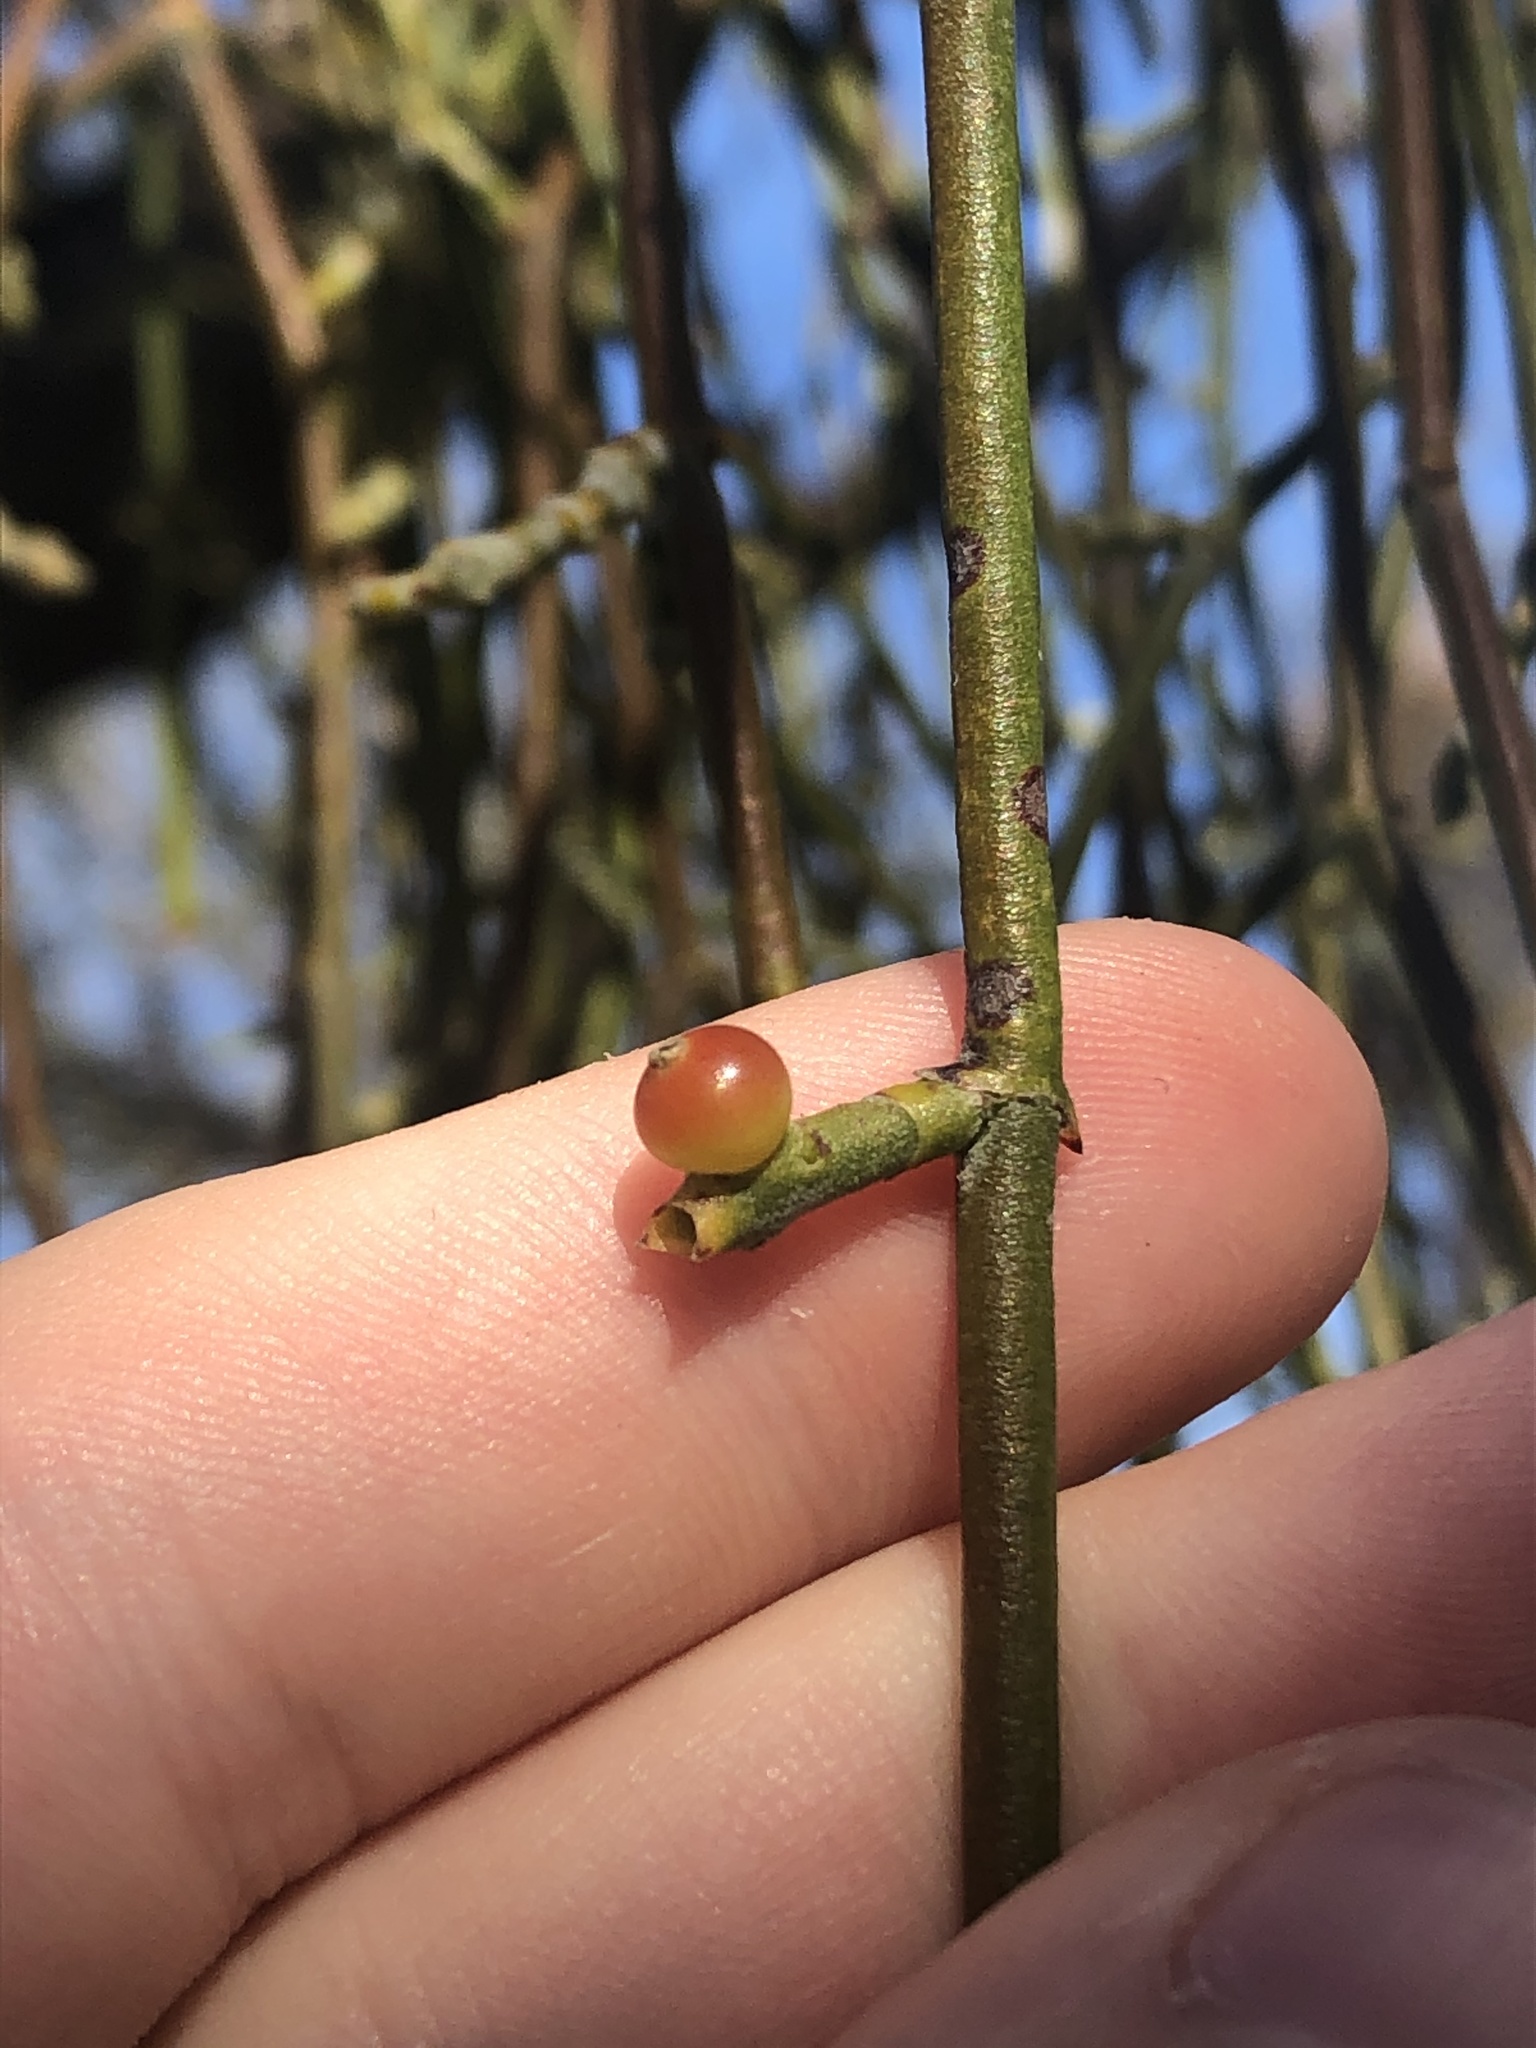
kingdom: Plantae
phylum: Tracheophyta
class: Magnoliopsida
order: Santalales
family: Viscaceae
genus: Phoradendron
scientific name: Phoradendron californicum
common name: Acacia mistletoe
